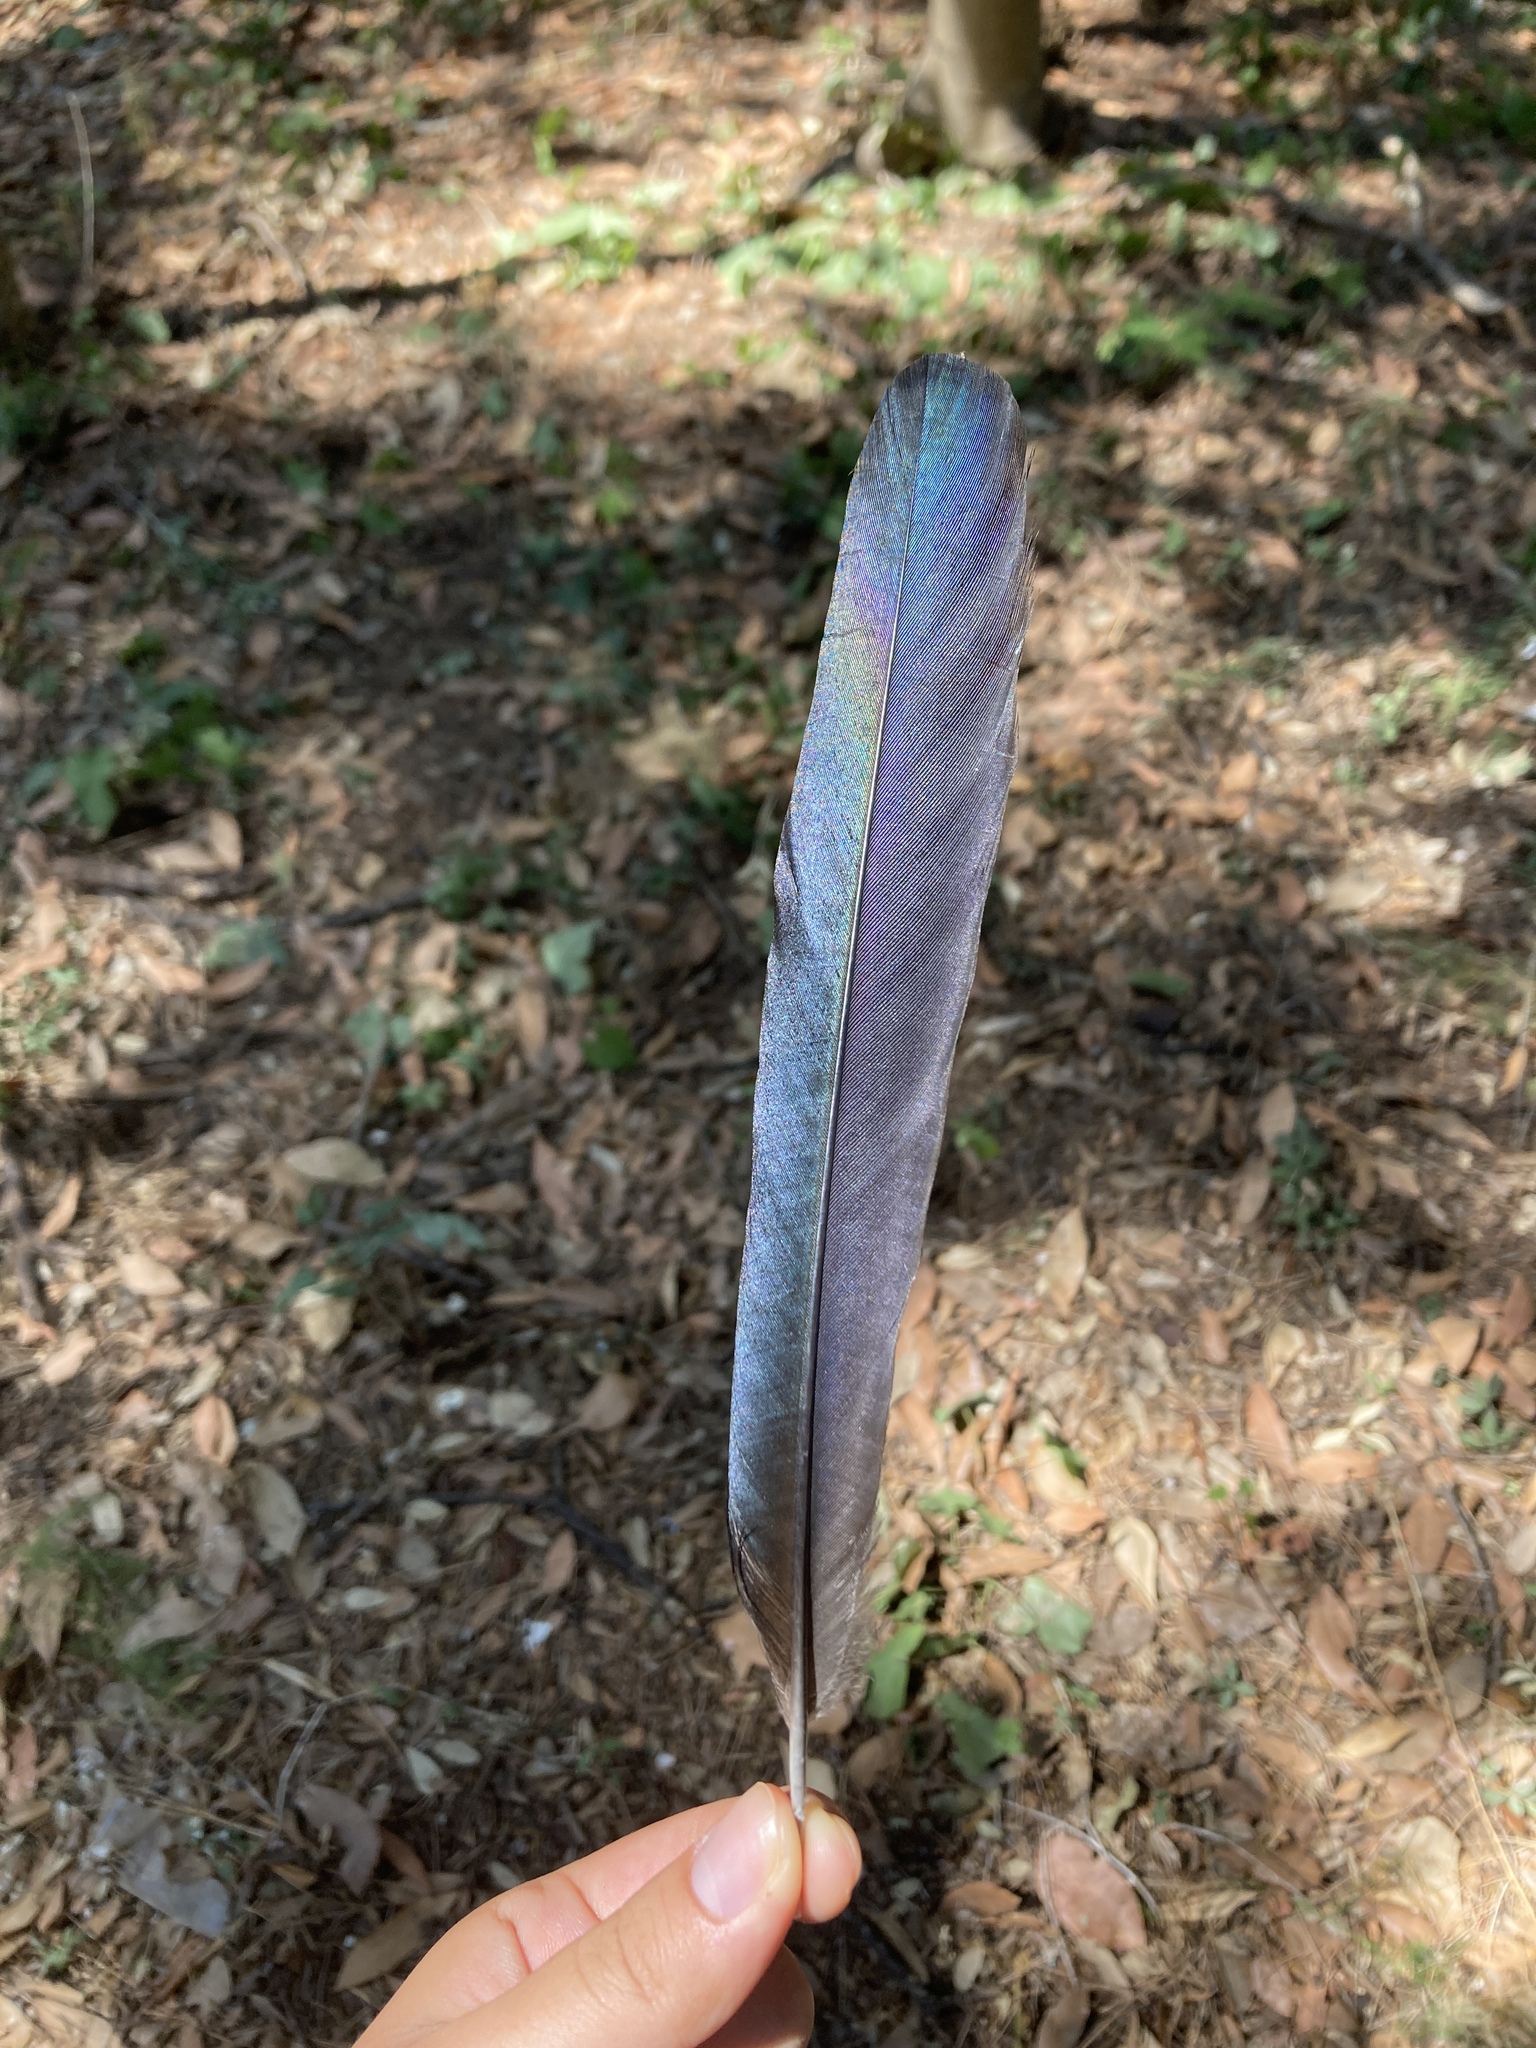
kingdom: Animalia
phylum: Chordata
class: Aves
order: Passeriformes
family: Corvidae
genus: Pica
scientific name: Pica pica
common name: Eurasian magpie
